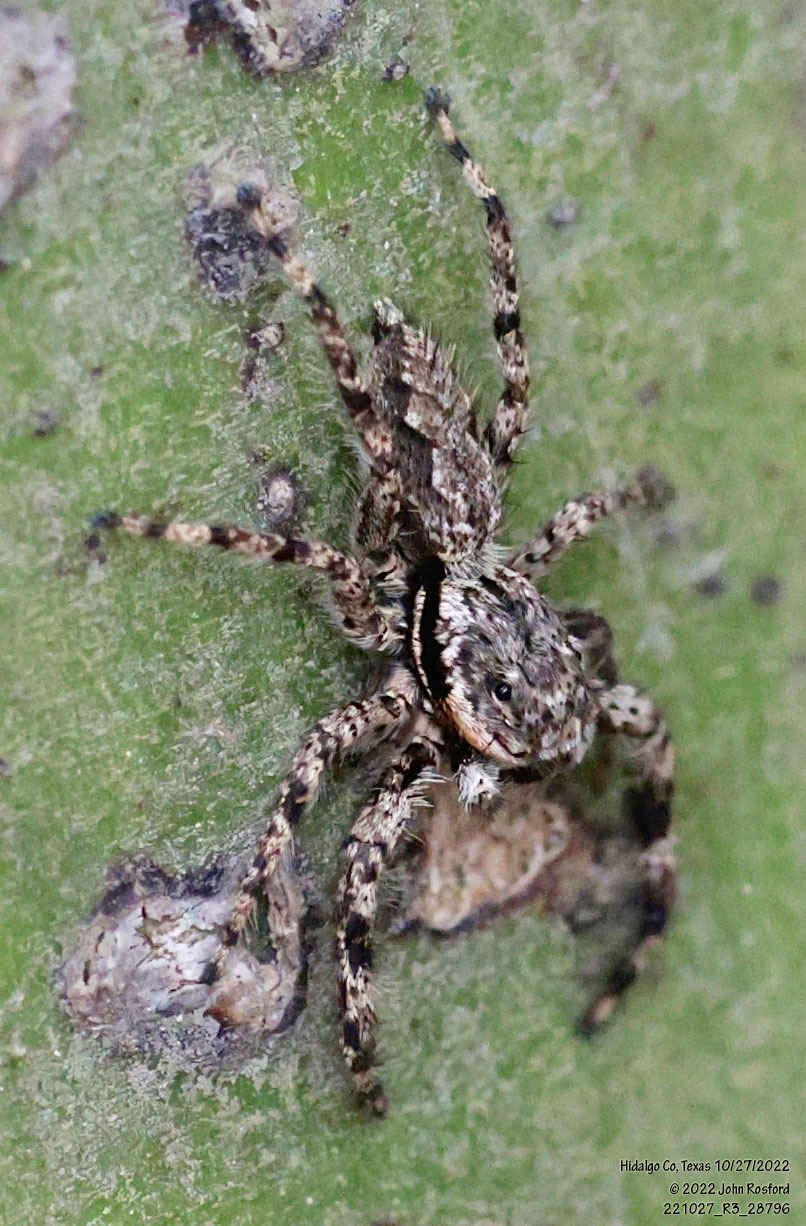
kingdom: Animalia
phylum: Arthropoda
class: Arachnida
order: Araneae
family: Salticidae
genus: Platycryptus
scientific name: Platycryptus undatus
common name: Tan jumping spider
